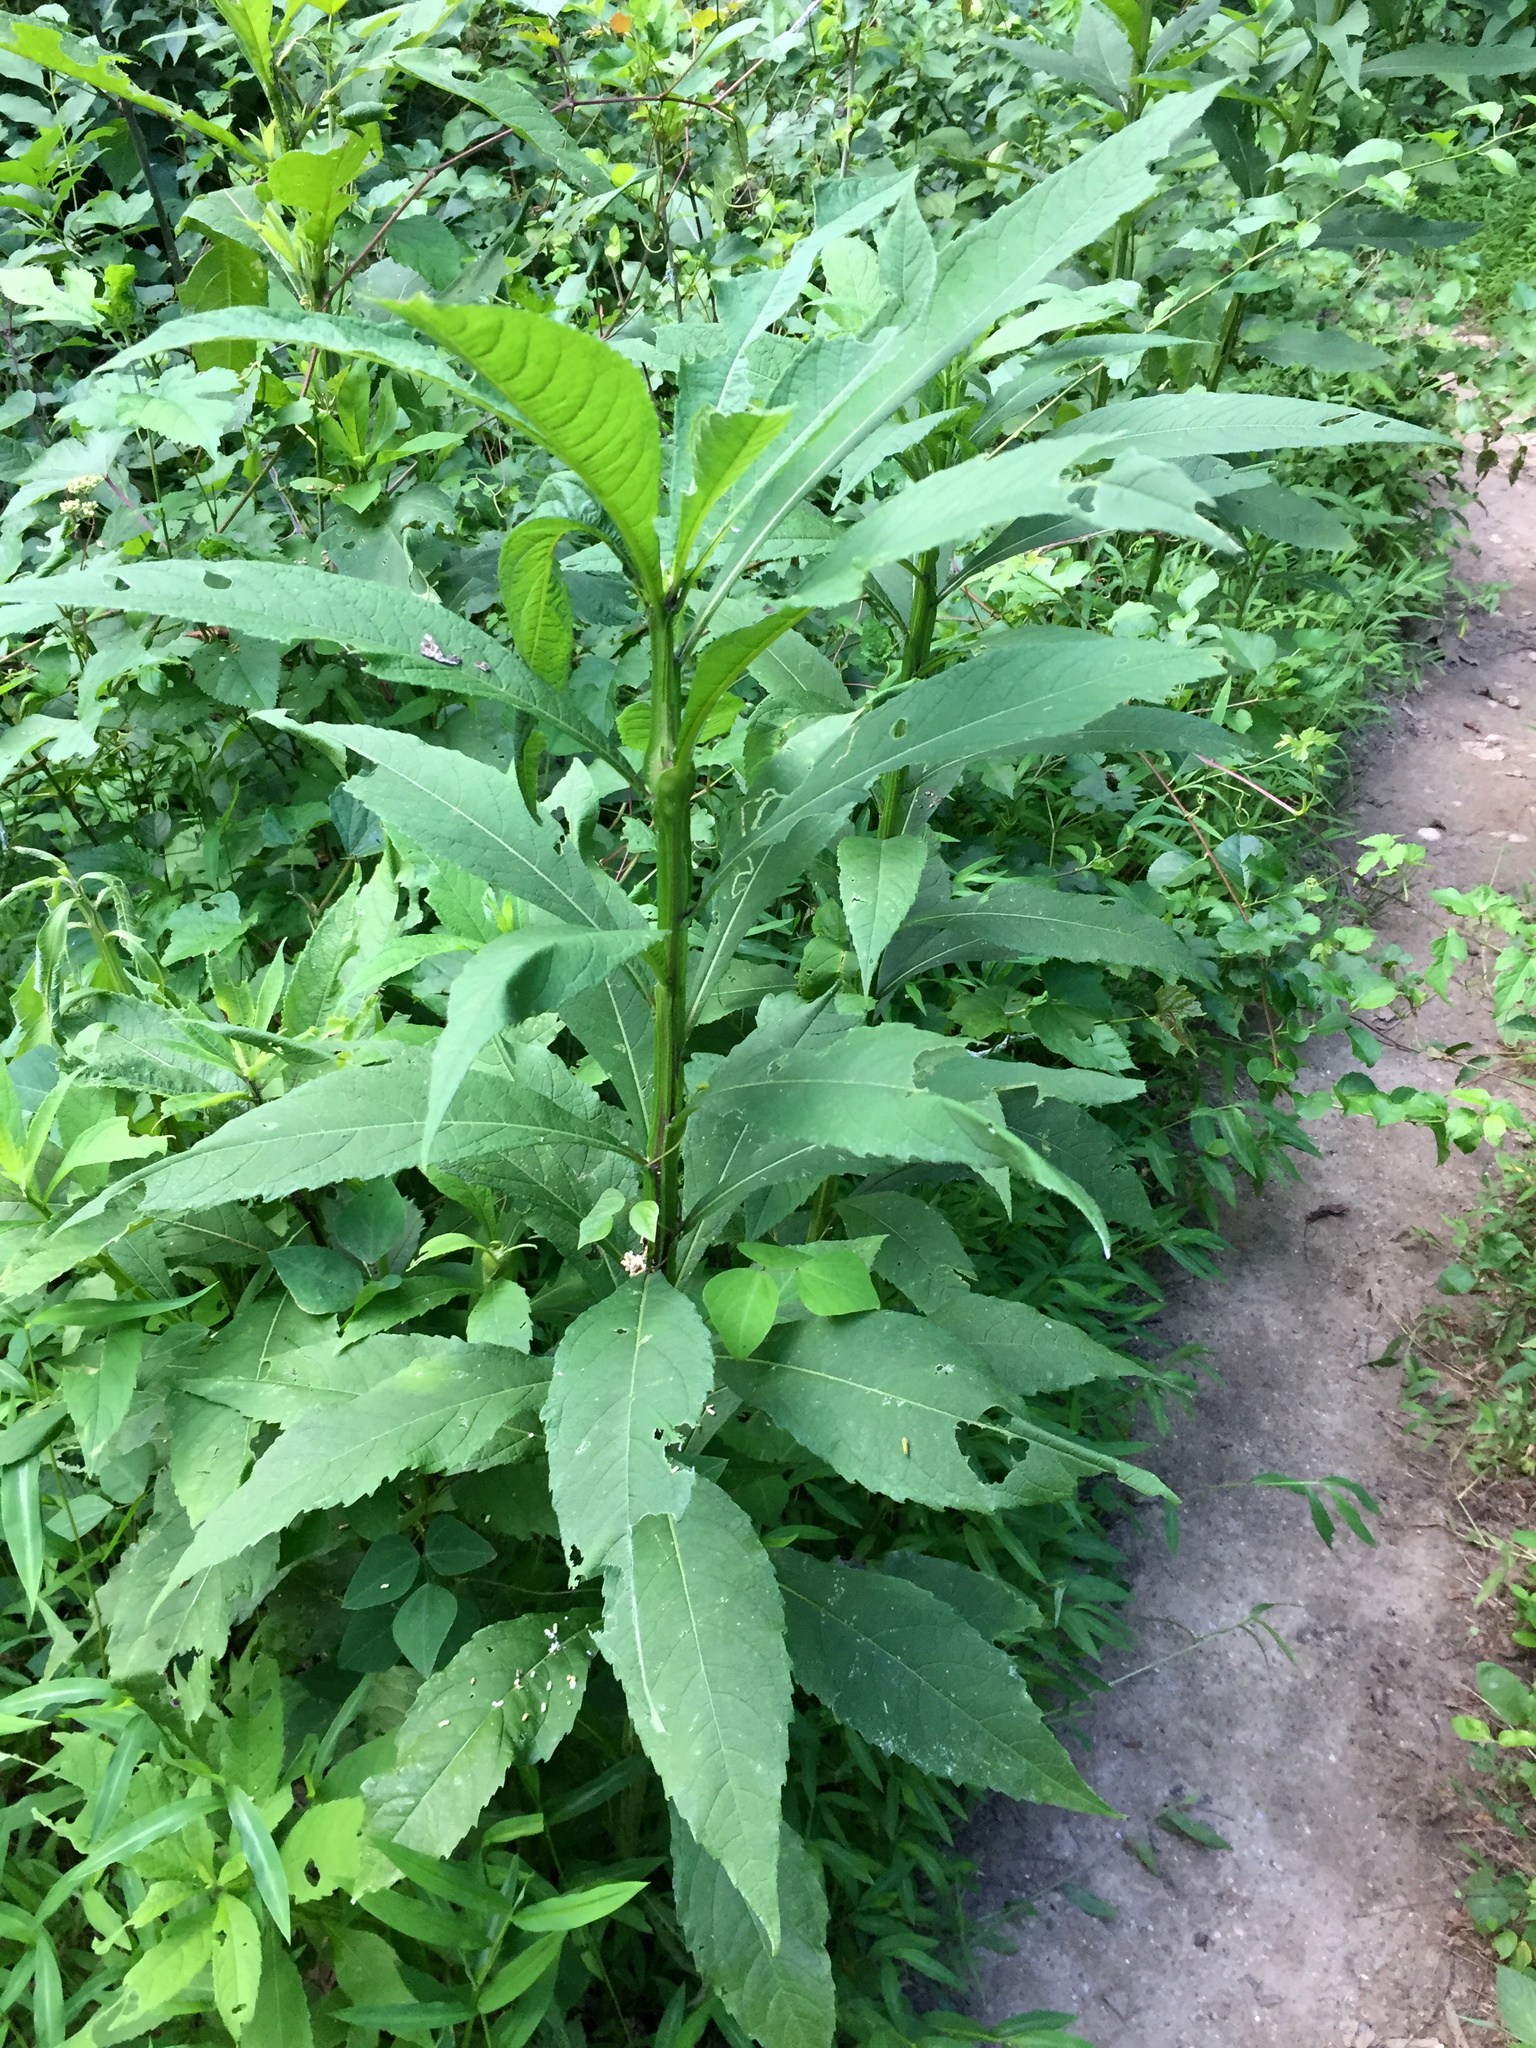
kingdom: Plantae
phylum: Tracheophyta
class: Magnoliopsida
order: Asterales
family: Asteraceae
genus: Verbesina
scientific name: Verbesina alternifolia
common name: Wingstem
